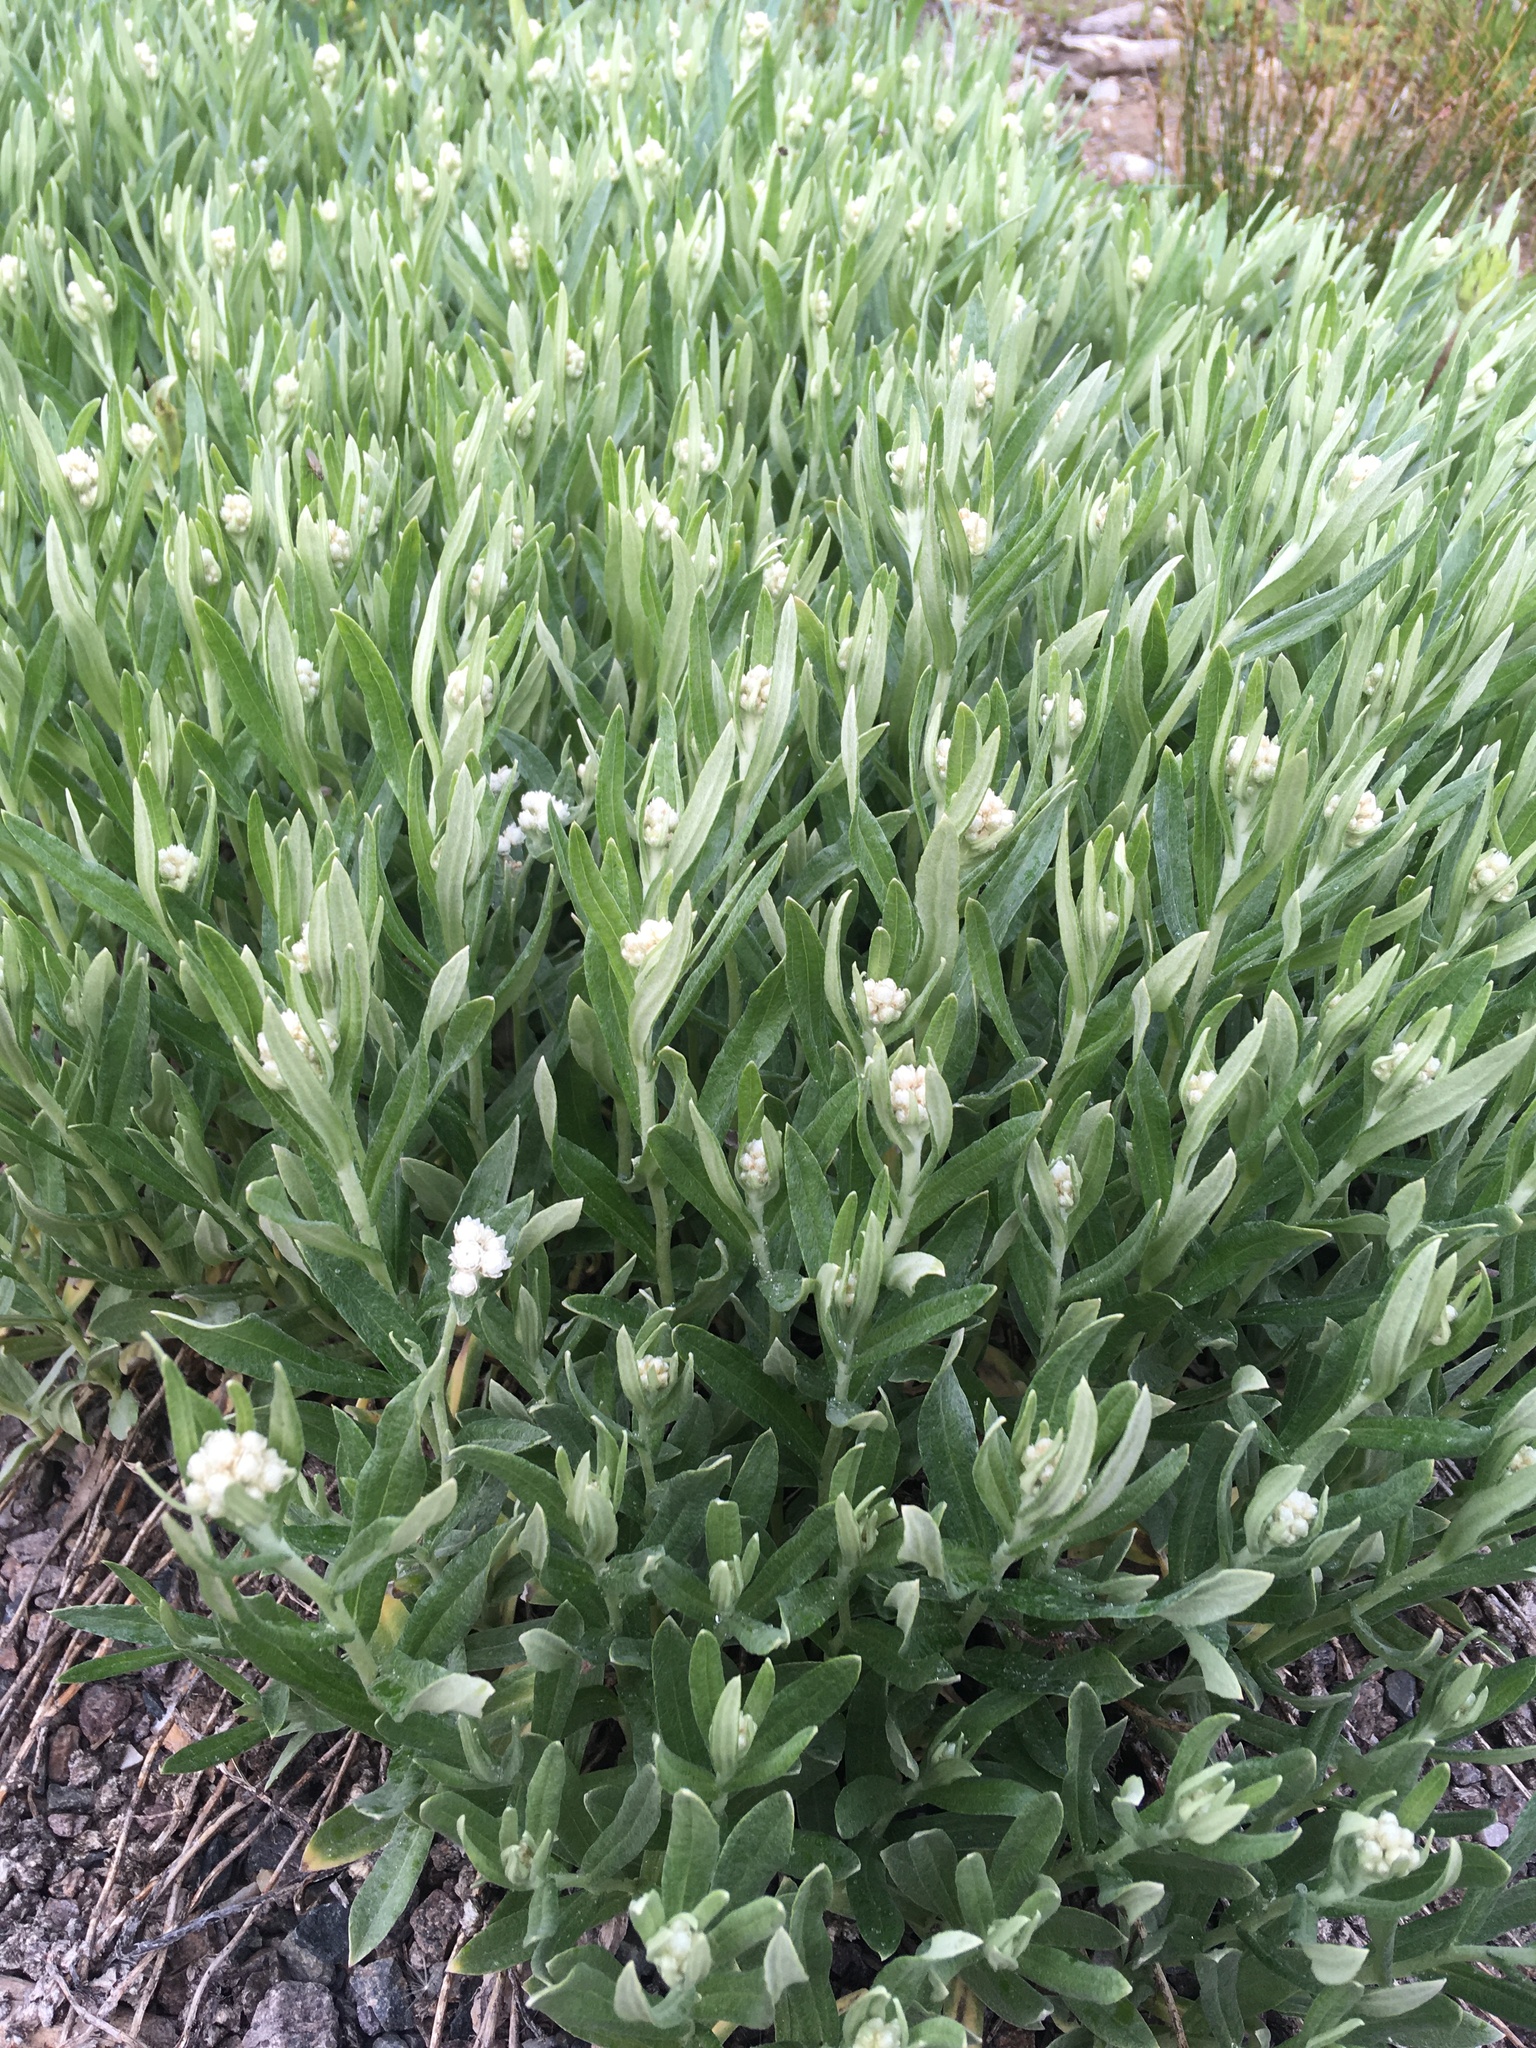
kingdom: Plantae
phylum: Tracheophyta
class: Magnoliopsida
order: Asterales
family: Asteraceae
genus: Anaphalis
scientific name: Anaphalis margaritacea
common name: Pearly everlasting
